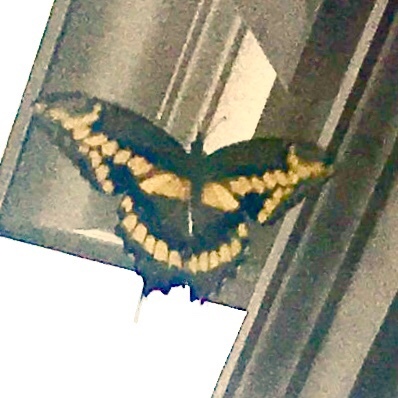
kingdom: Animalia
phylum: Arthropoda
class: Insecta
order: Lepidoptera
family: Papilionidae
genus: Papilio
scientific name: Papilio cresphontes
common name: Giant swallowtail
